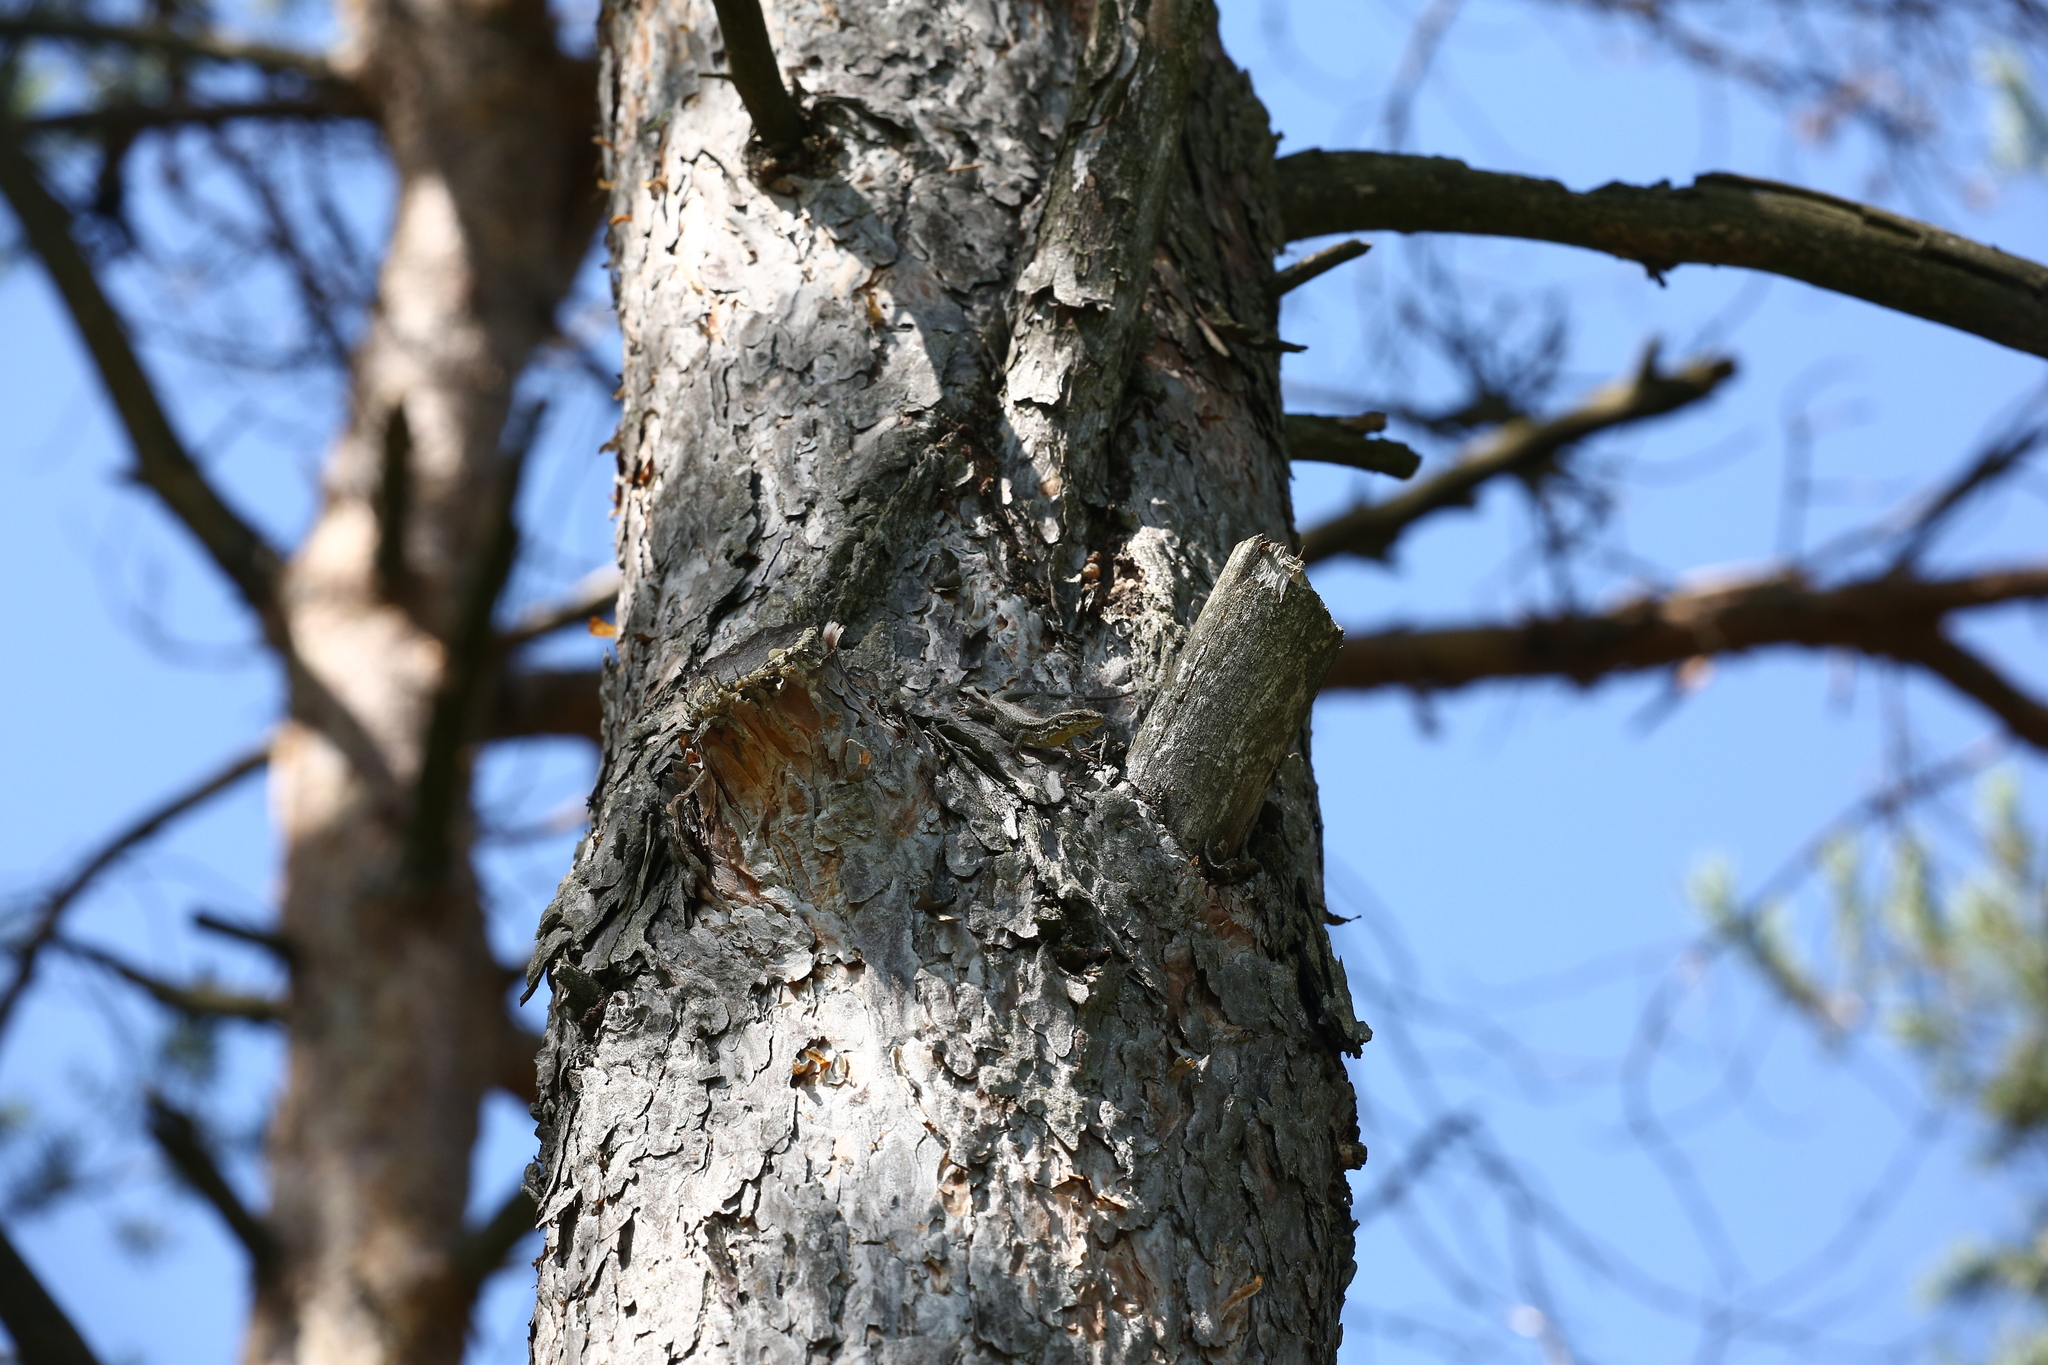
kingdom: Animalia
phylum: Chordata
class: Squamata
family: Lacertidae
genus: Podarcis
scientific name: Podarcis muralis
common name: Common wall lizard
